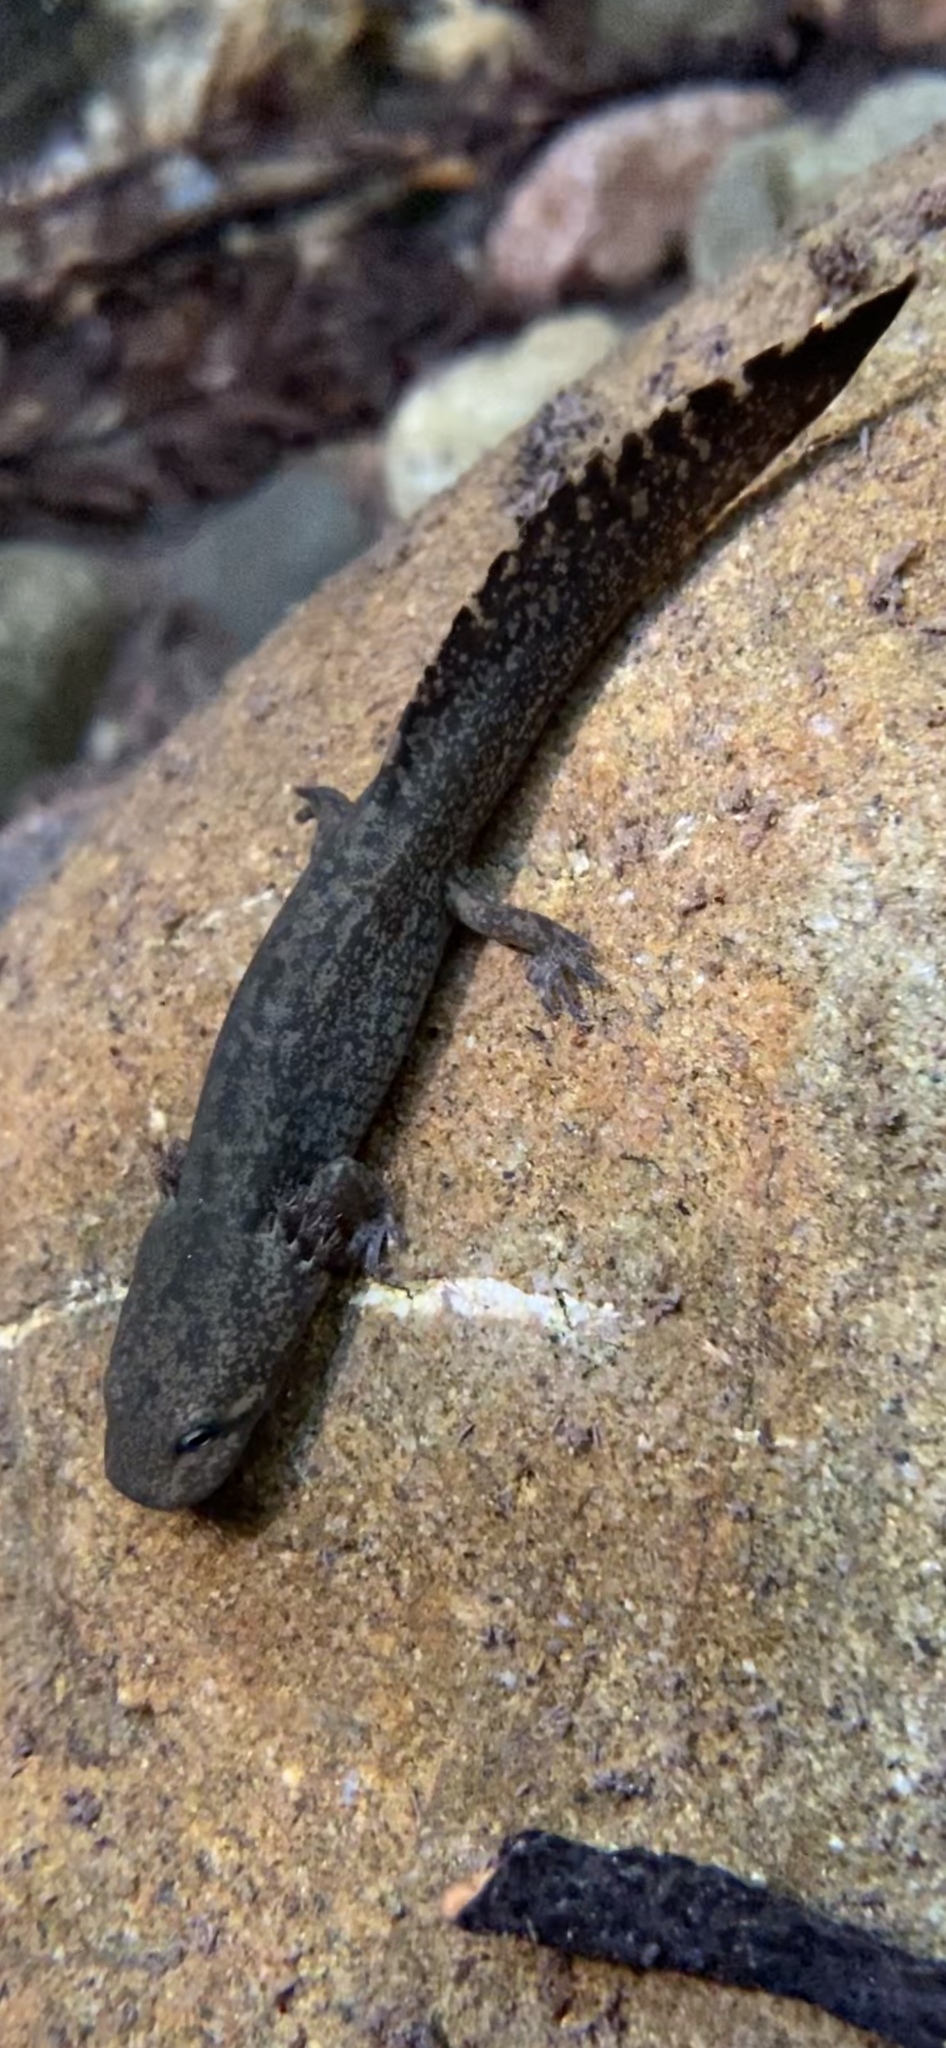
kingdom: Animalia
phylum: Chordata
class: Amphibia
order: Caudata
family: Ambystomatidae
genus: Dicamptodon
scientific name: Dicamptodon ensatus
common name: California giant salamander
